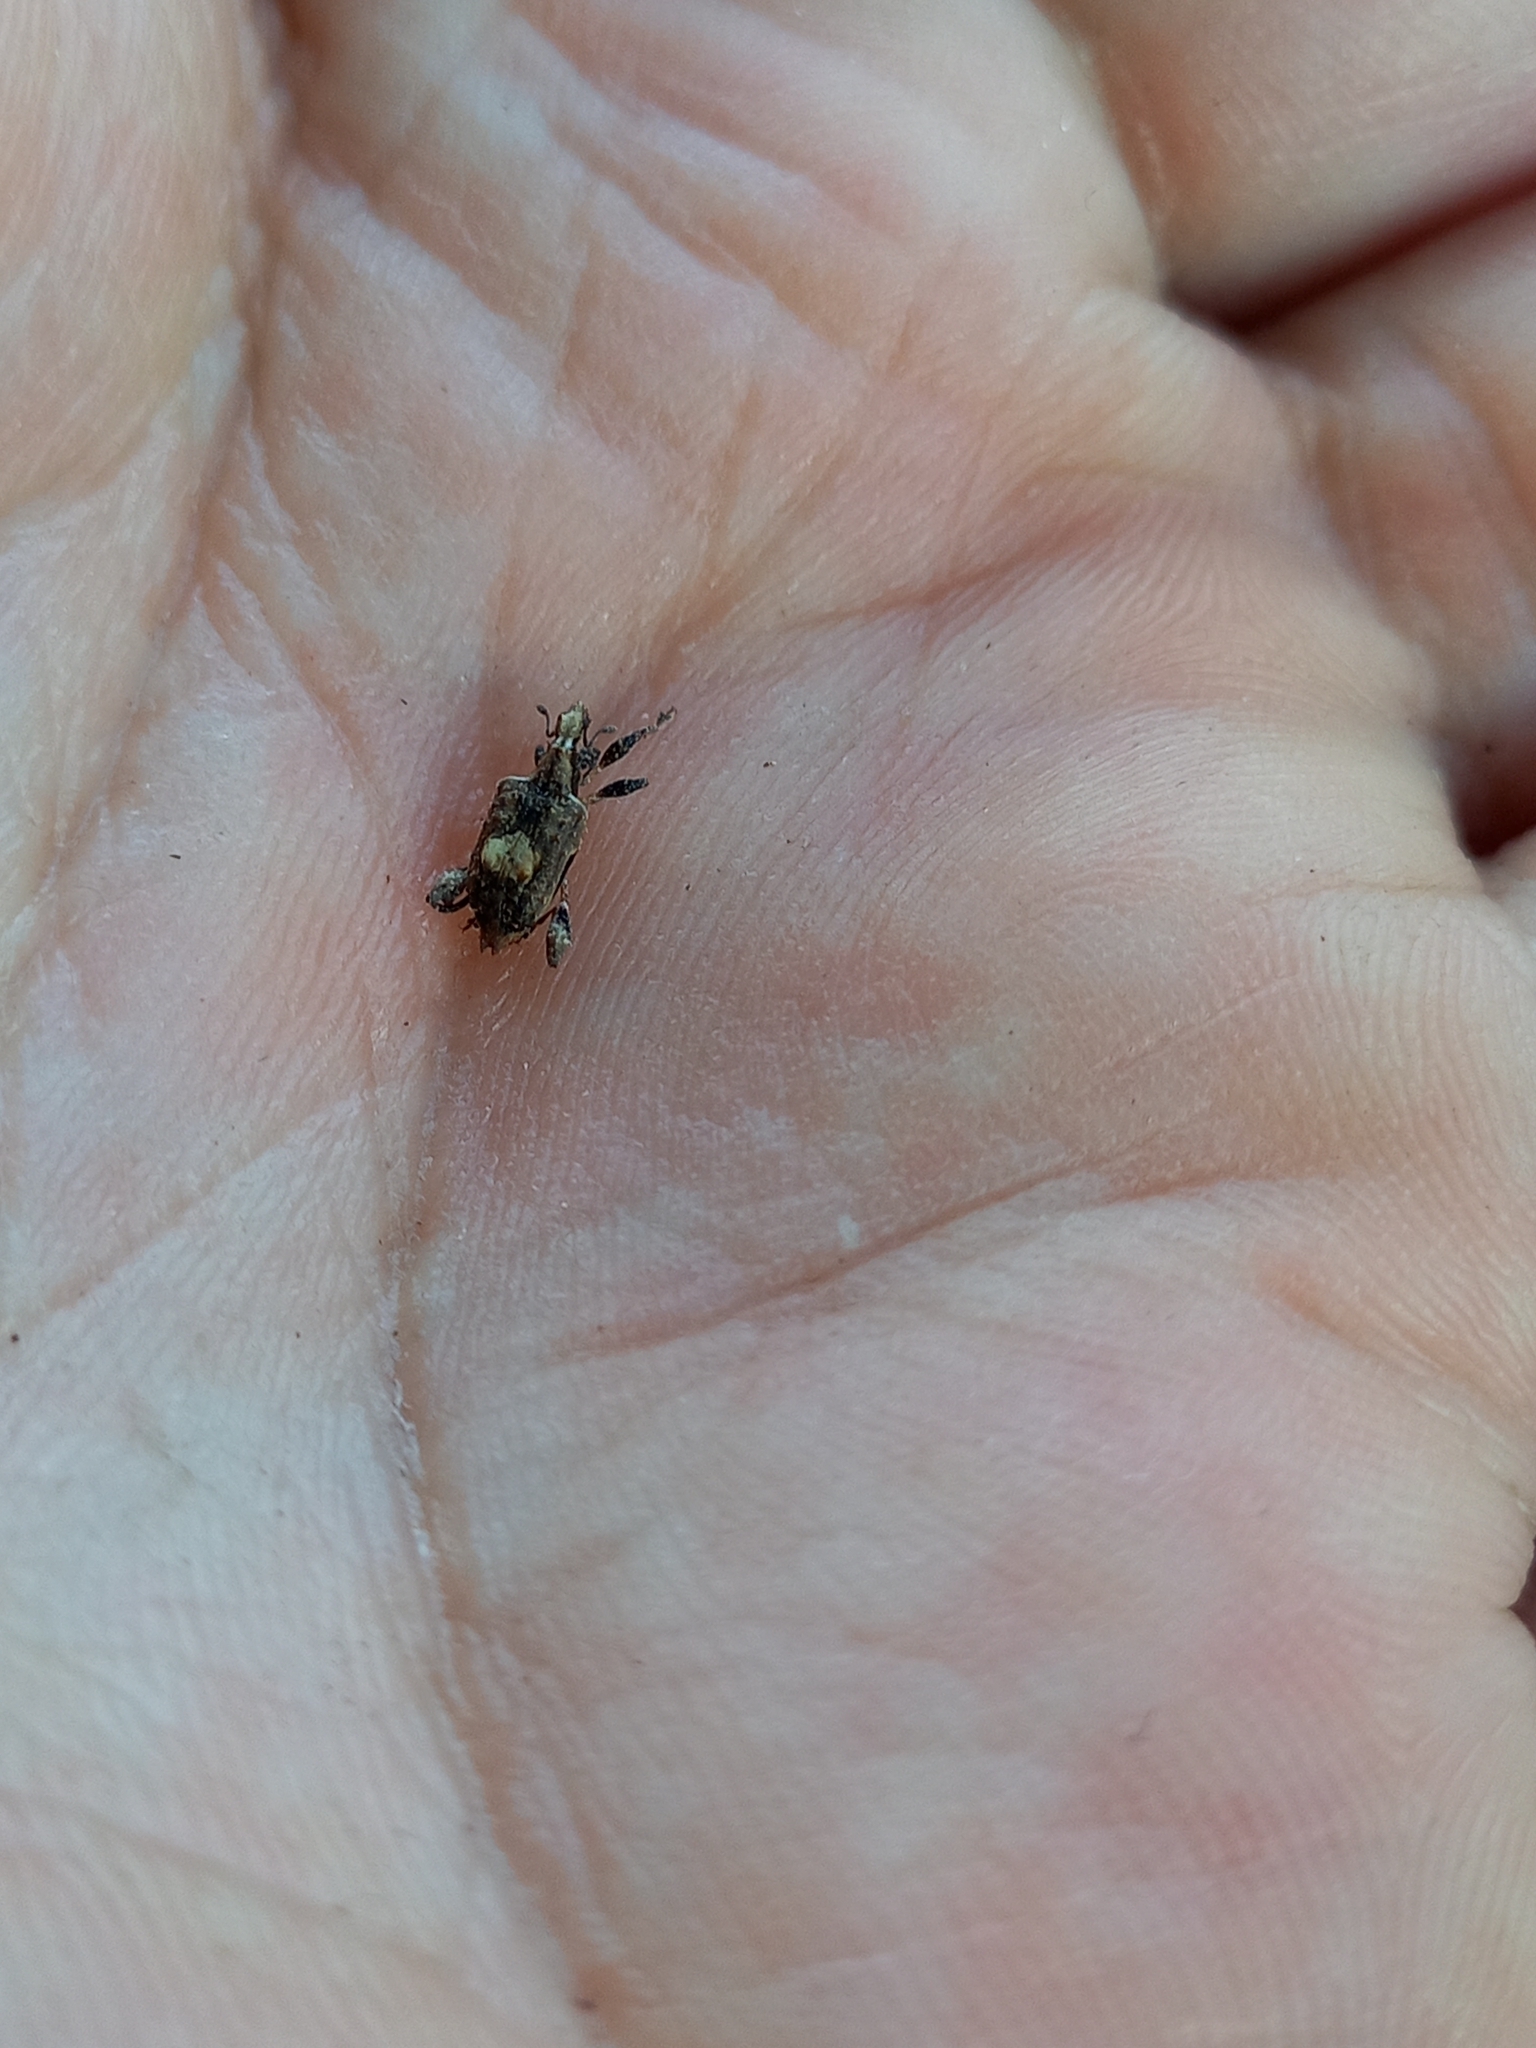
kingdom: Animalia
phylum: Arthropoda
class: Insecta
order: Coleoptera
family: Curculionidae
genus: Stephanorrhynchus
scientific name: Stephanorrhynchus tuberosus
